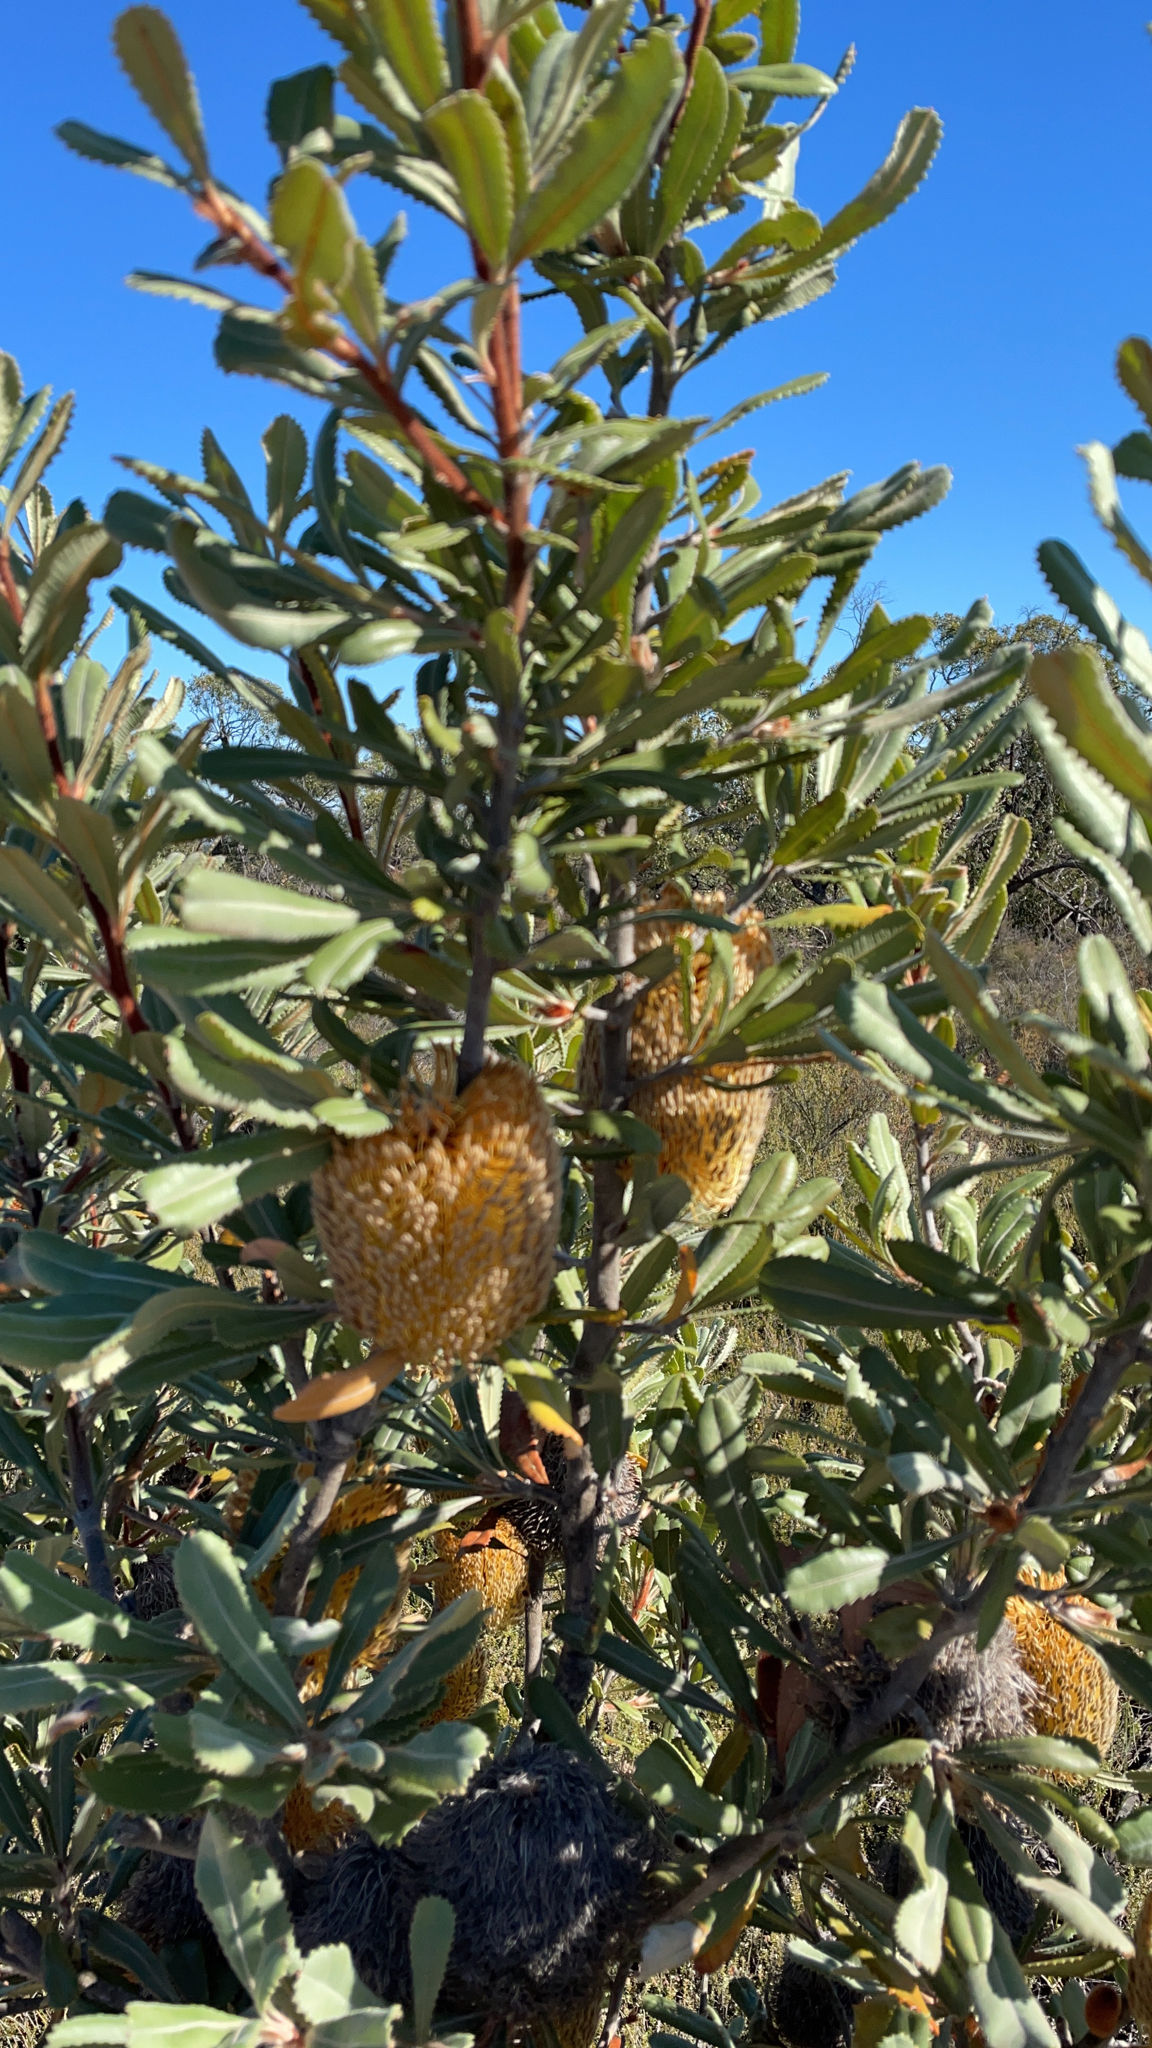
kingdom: Plantae
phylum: Tracheophyta
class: Magnoliopsida
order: Proteales
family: Proteaceae
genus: Banksia
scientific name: Banksia ornata
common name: Desert banksia
